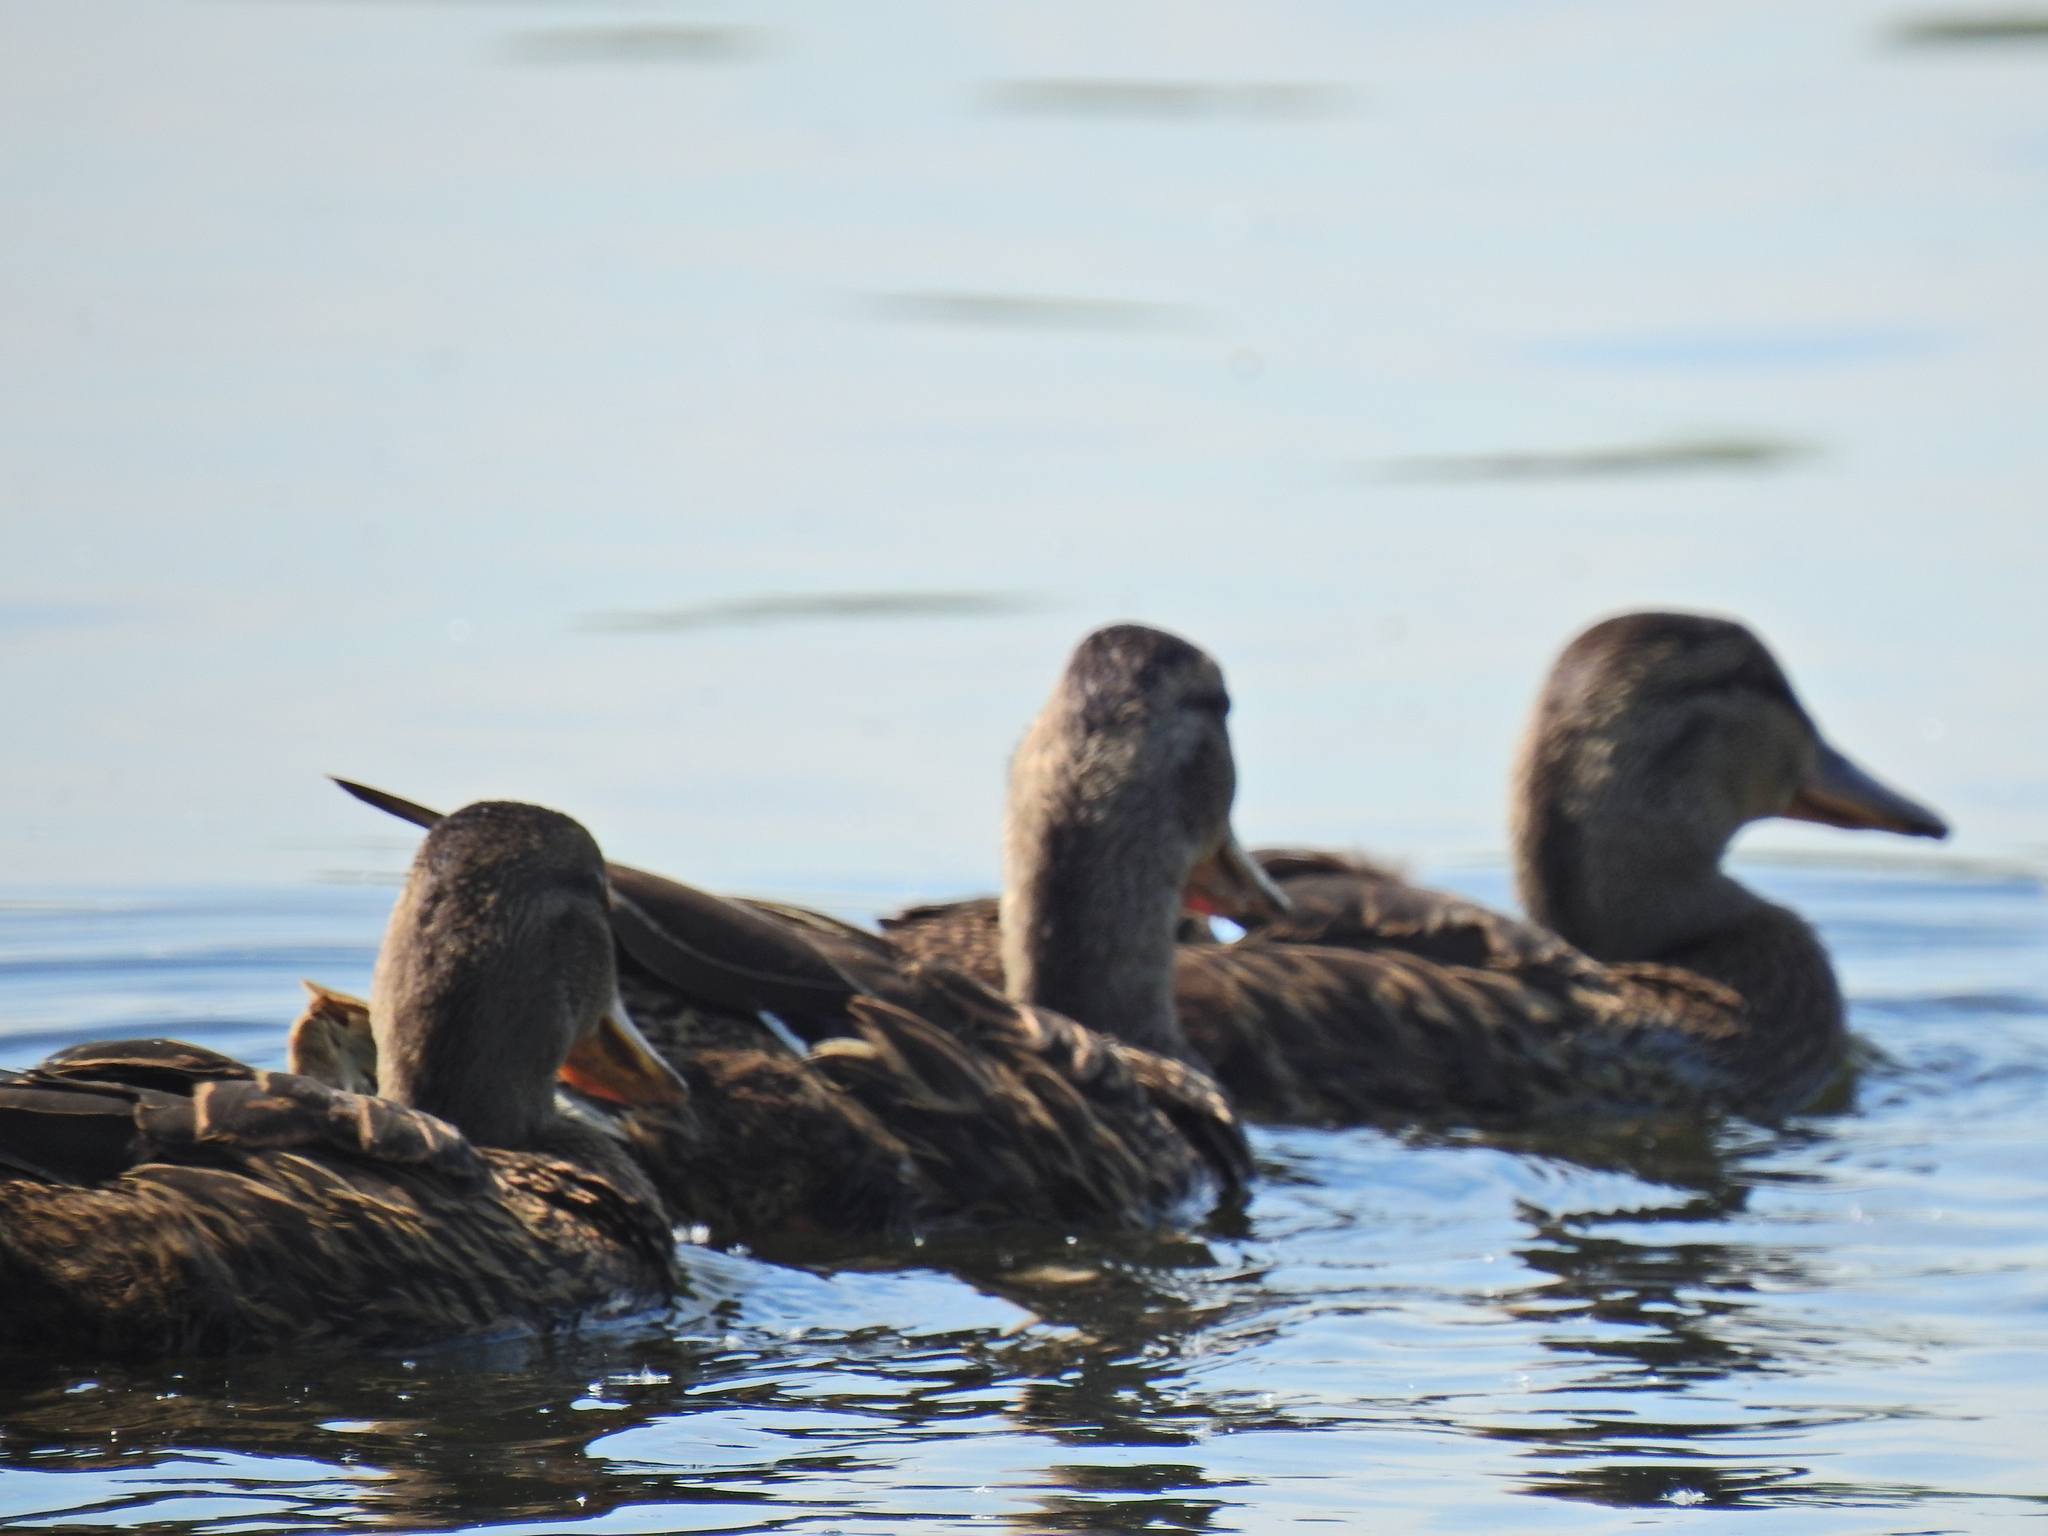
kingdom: Animalia
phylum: Chordata
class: Aves
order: Anseriformes
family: Anatidae
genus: Anas
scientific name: Anas platyrhynchos
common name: Mallard
